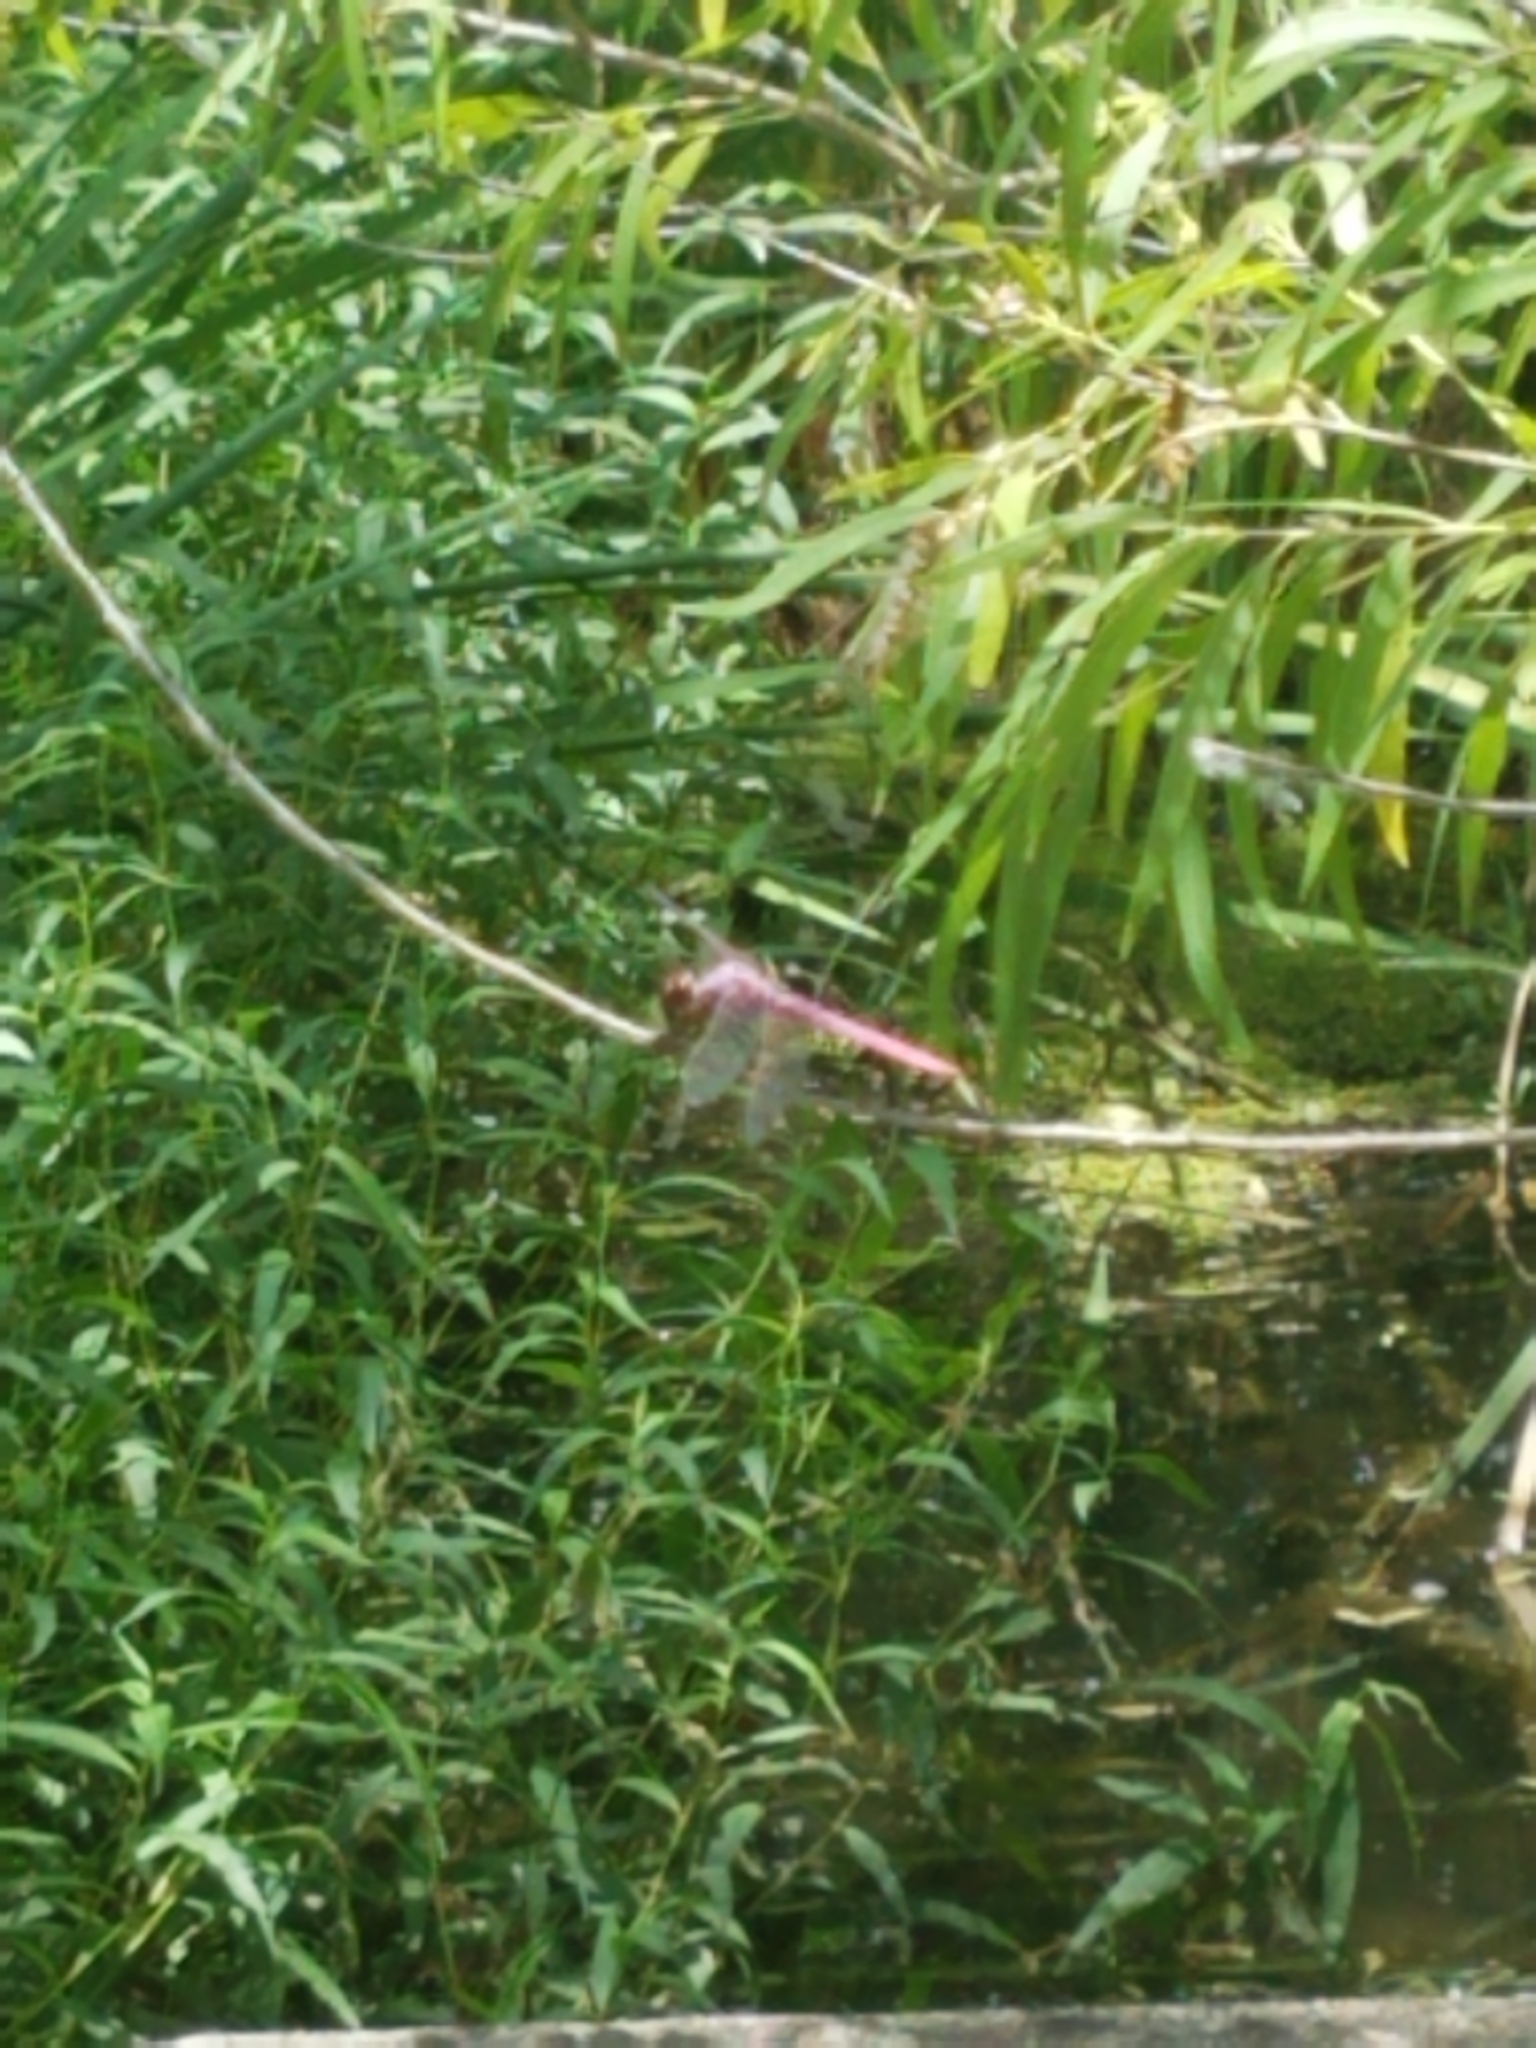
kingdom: Animalia
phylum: Arthropoda
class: Insecta
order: Odonata
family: Libellulidae
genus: Orthemis
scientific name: Orthemis ferruginea
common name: Roseate skimmer
